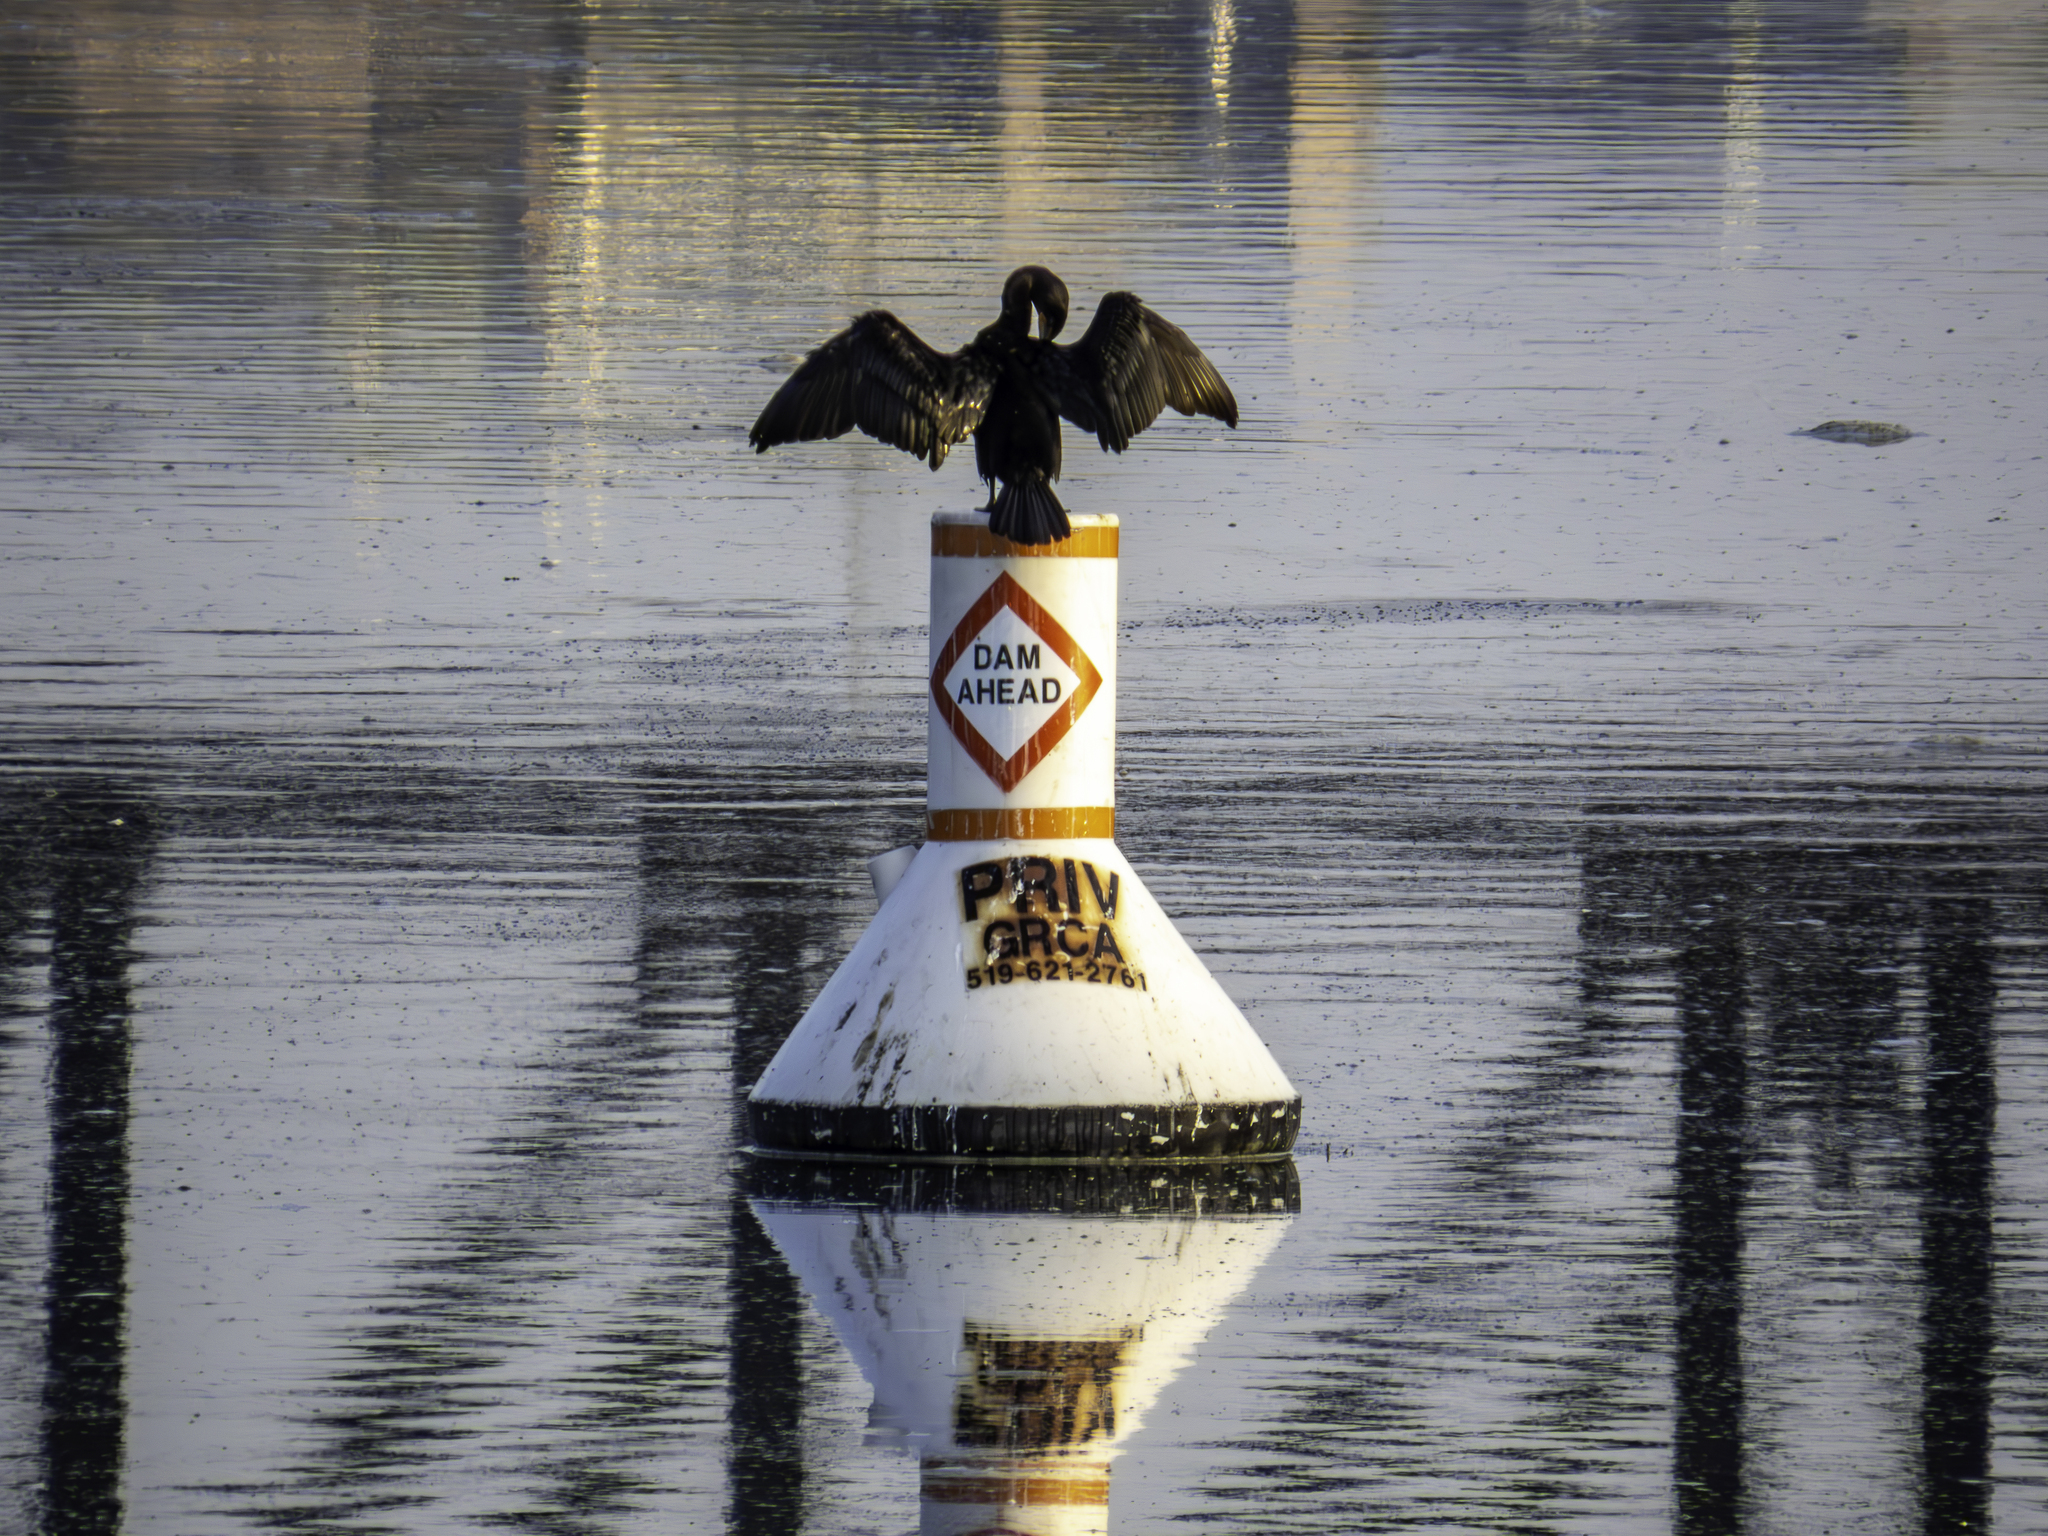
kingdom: Animalia
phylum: Chordata
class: Aves
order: Suliformes
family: Phalacrocoracidae
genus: Phalacrocorax
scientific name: Phalacrocorax auritus
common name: Double-crested cormorant
